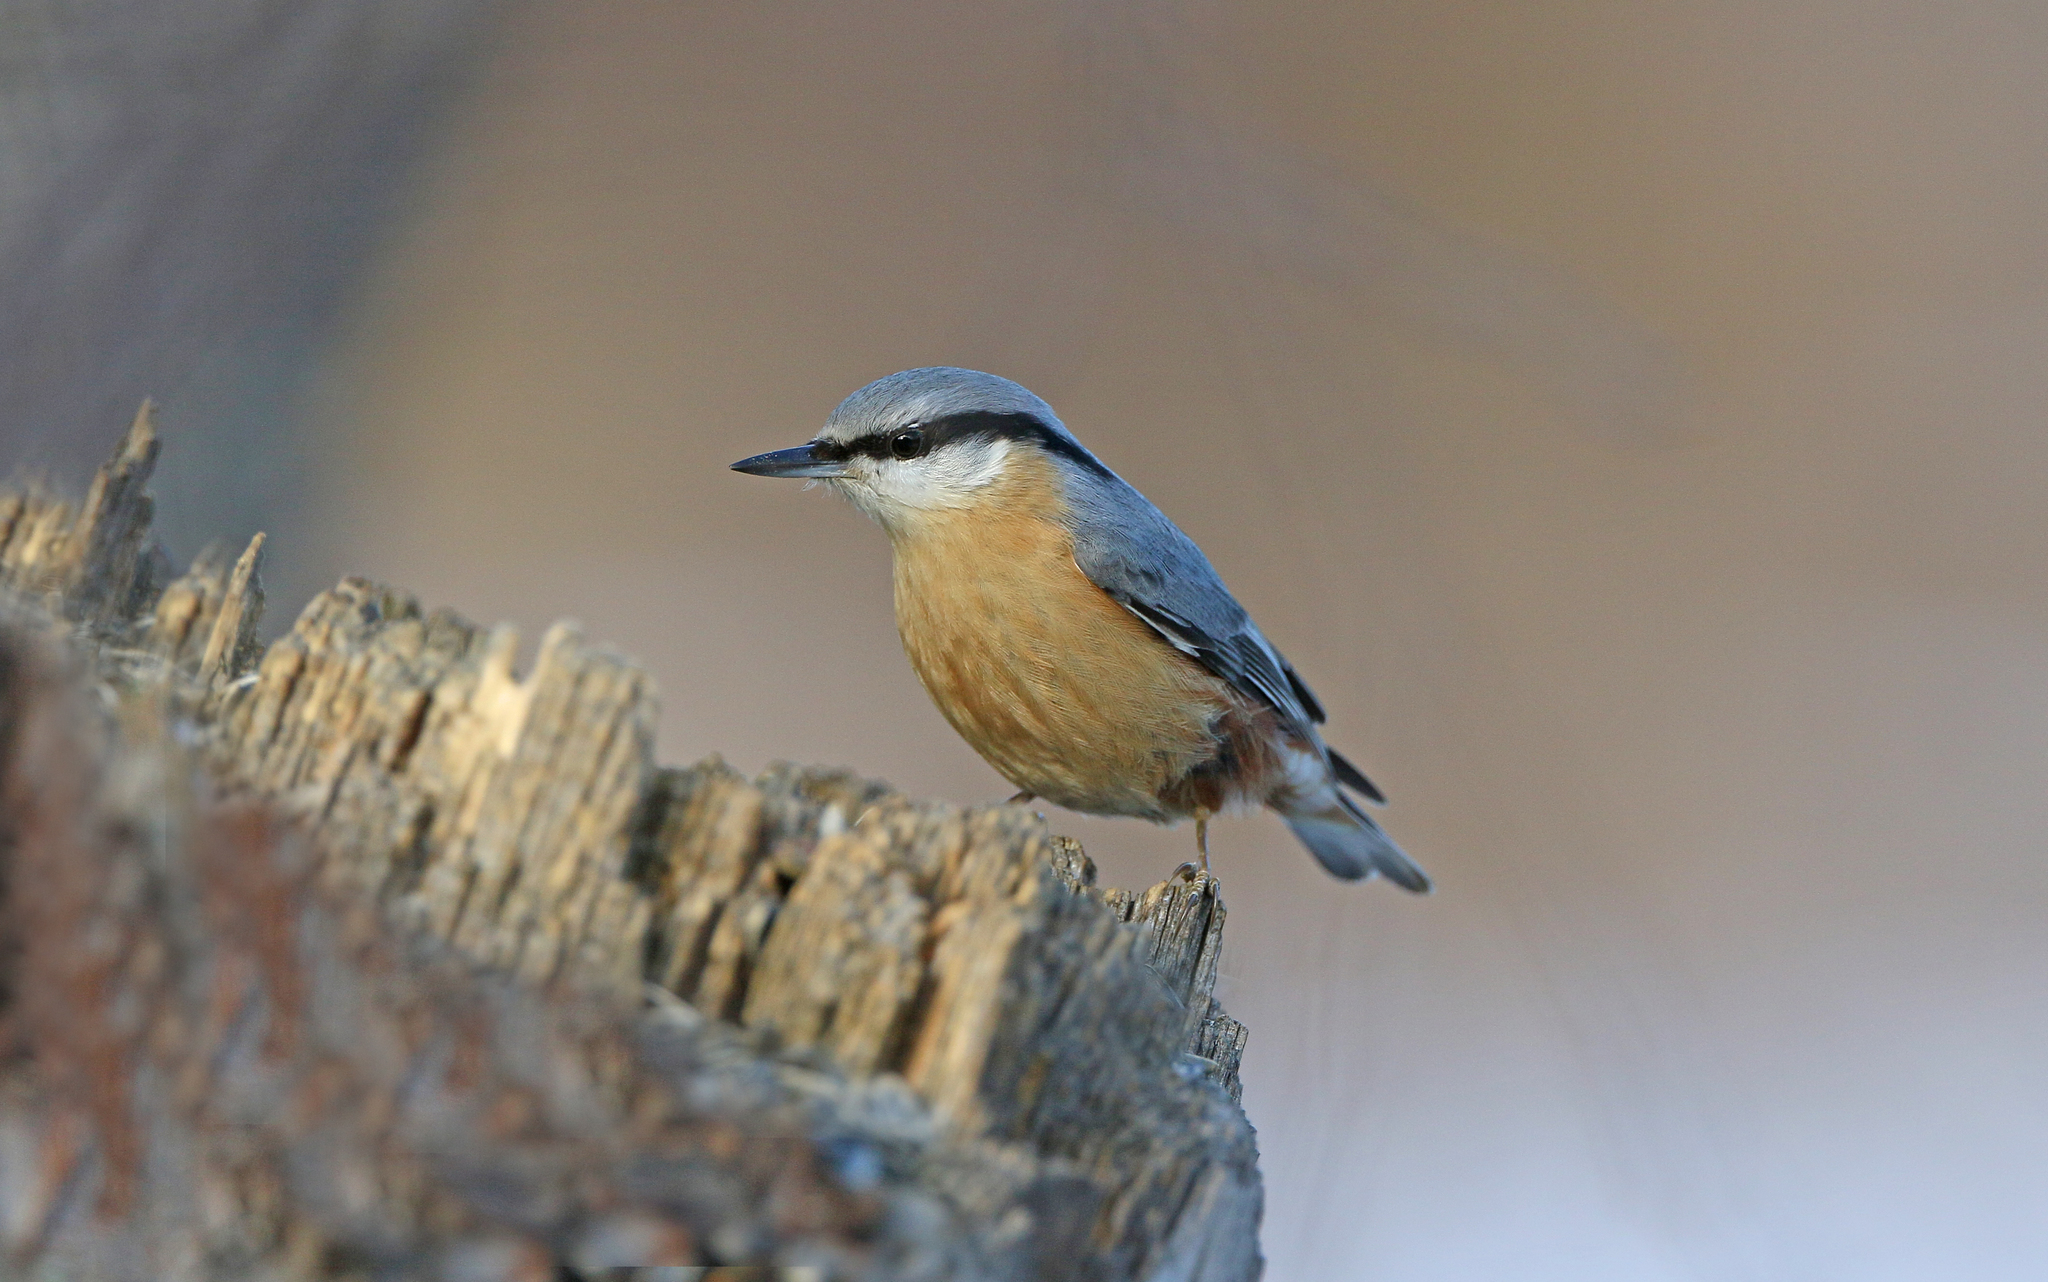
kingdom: Animalia
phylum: Chordata
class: Aves
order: Passeriformes
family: Sittidae
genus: Sitta
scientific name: Sitta europaea
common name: Eurasian nuthatch
